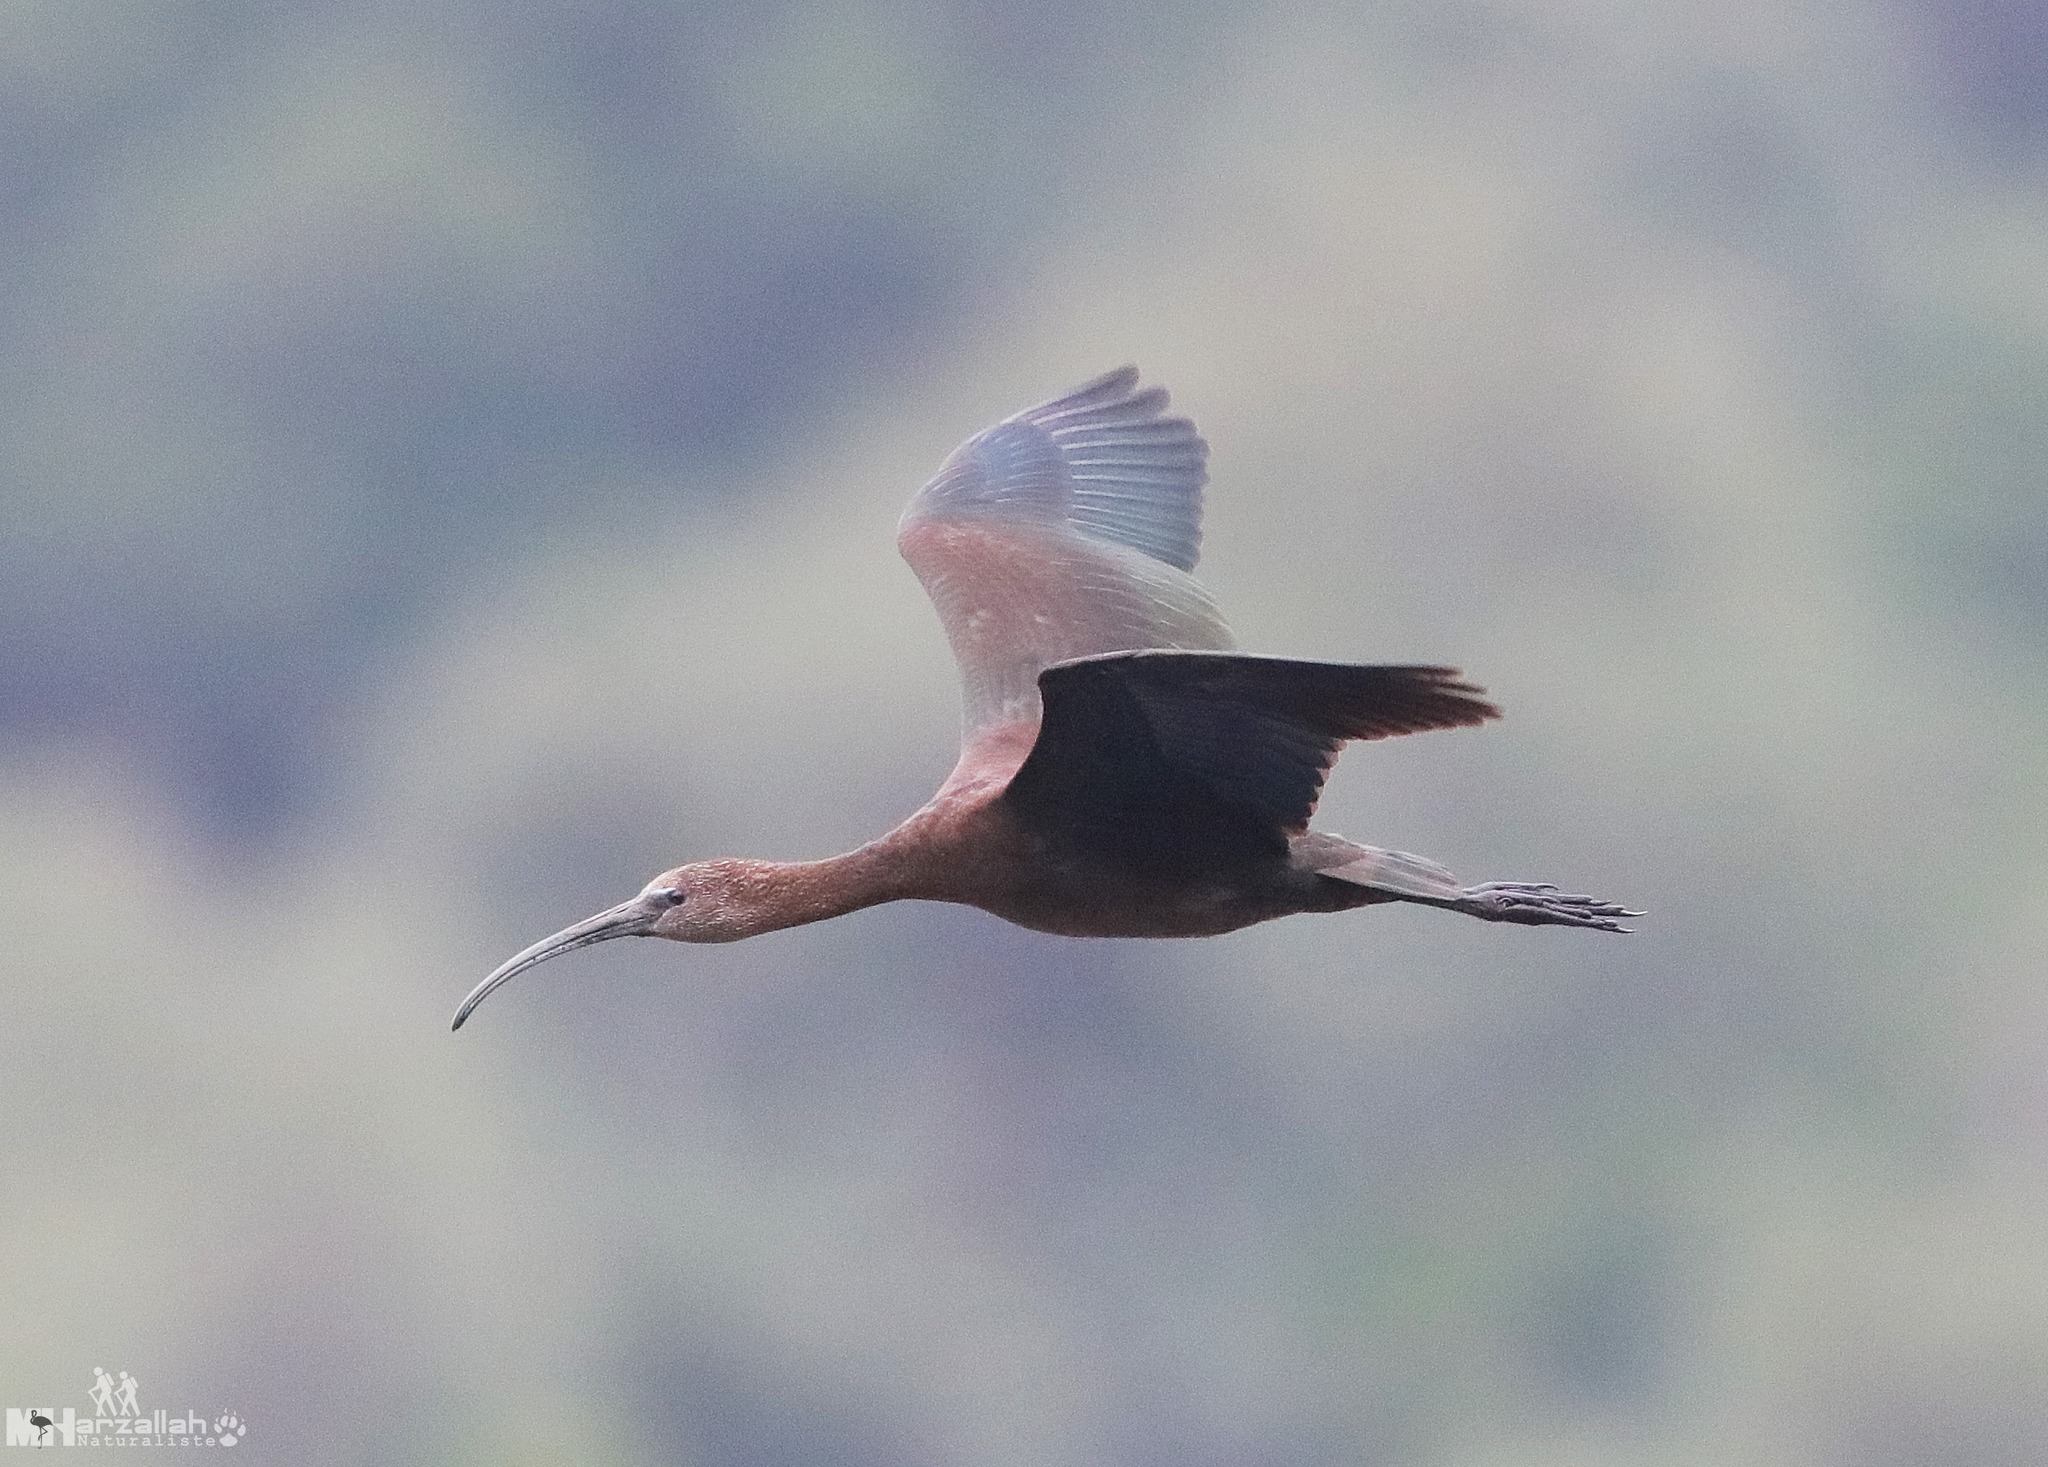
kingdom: Animalia
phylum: Chordata
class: Aves
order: Pelecaniformes
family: Threskiornithidae
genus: Plegadis
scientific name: Plegadis falcinellus
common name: Glossy ibis
